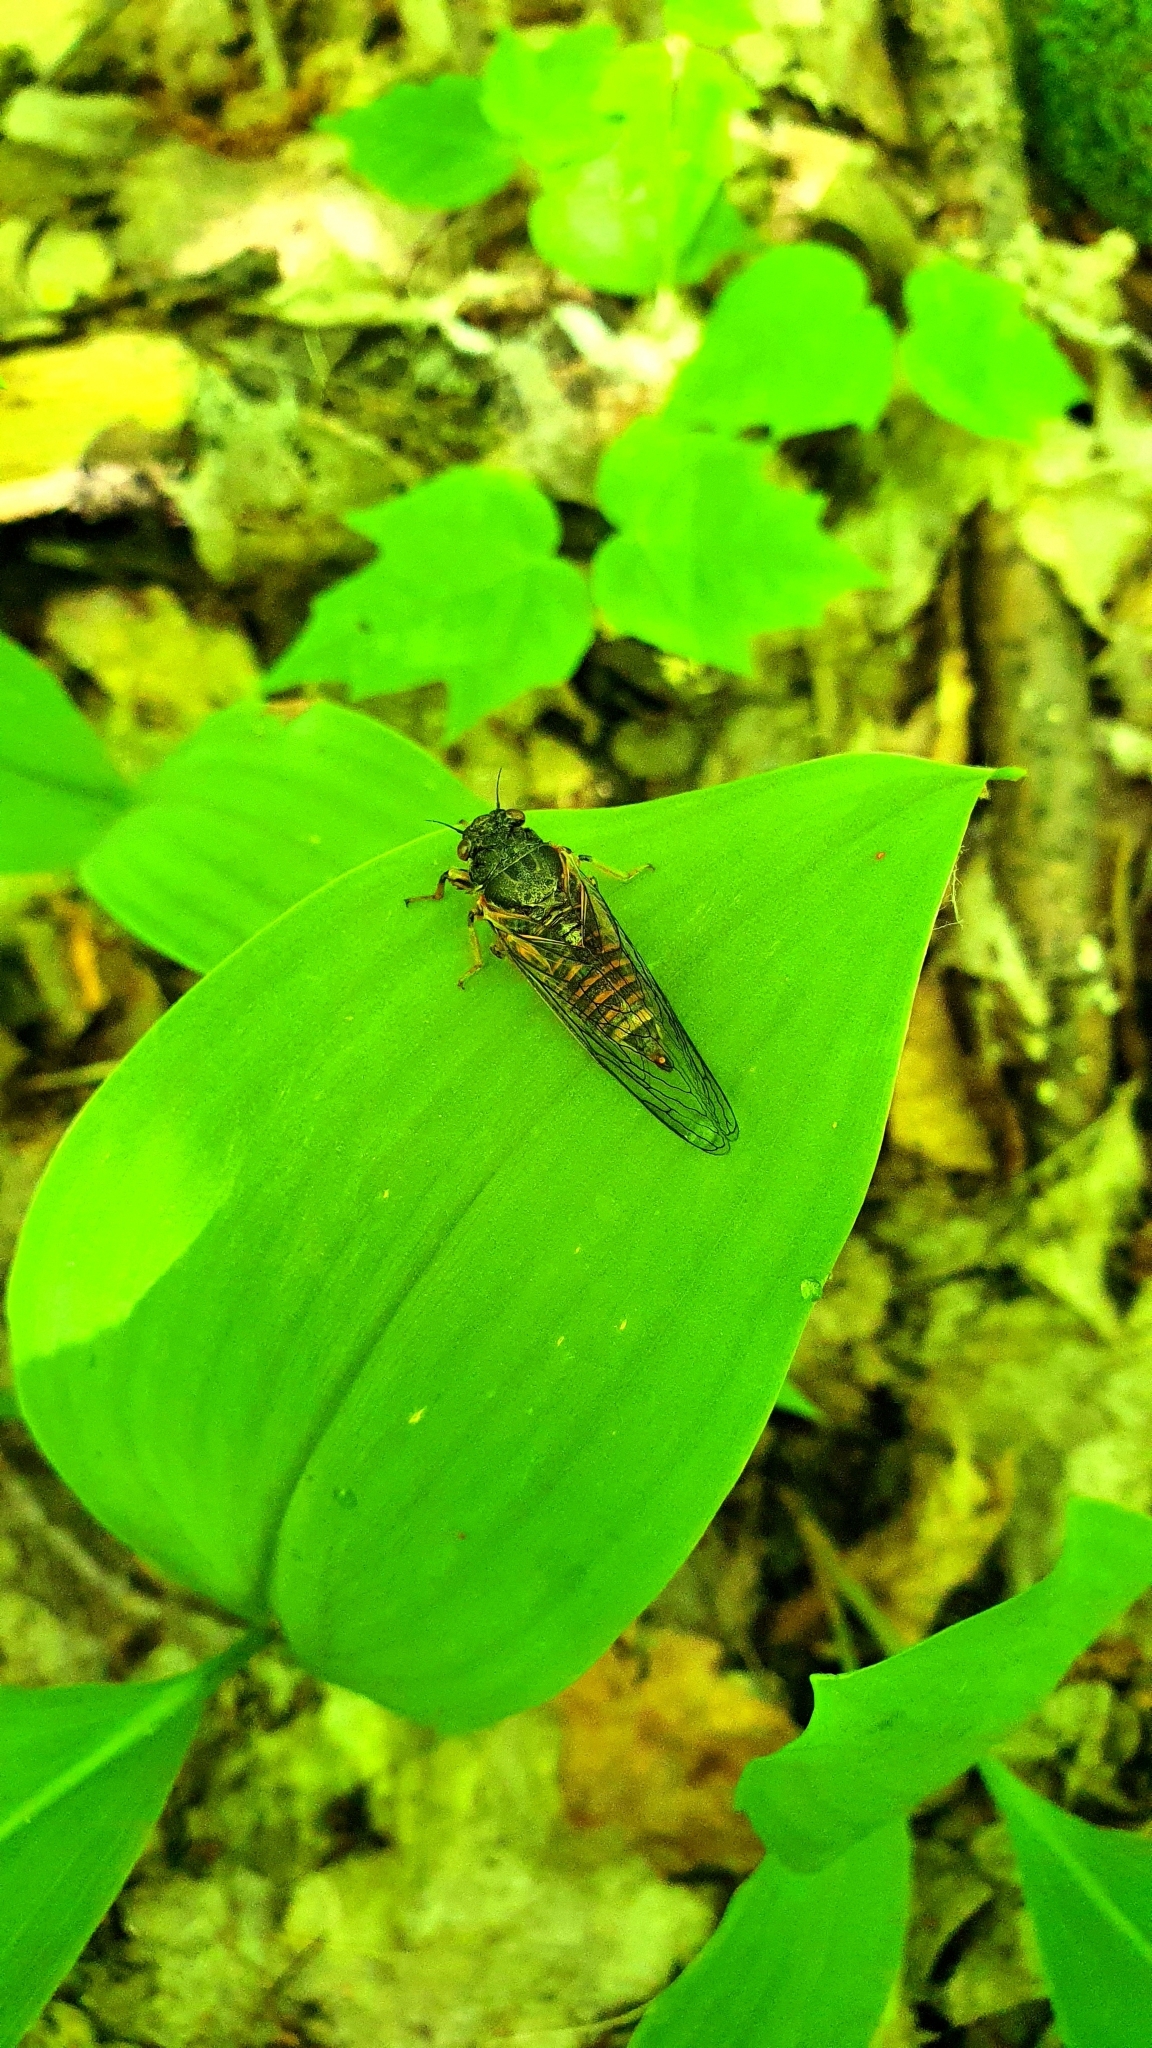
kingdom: Animalia
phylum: Arthropoda
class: Insecta
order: Hemiptera
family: Cicadidae
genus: Cicadetta
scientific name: Cicadetta montana
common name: New forest cicada
